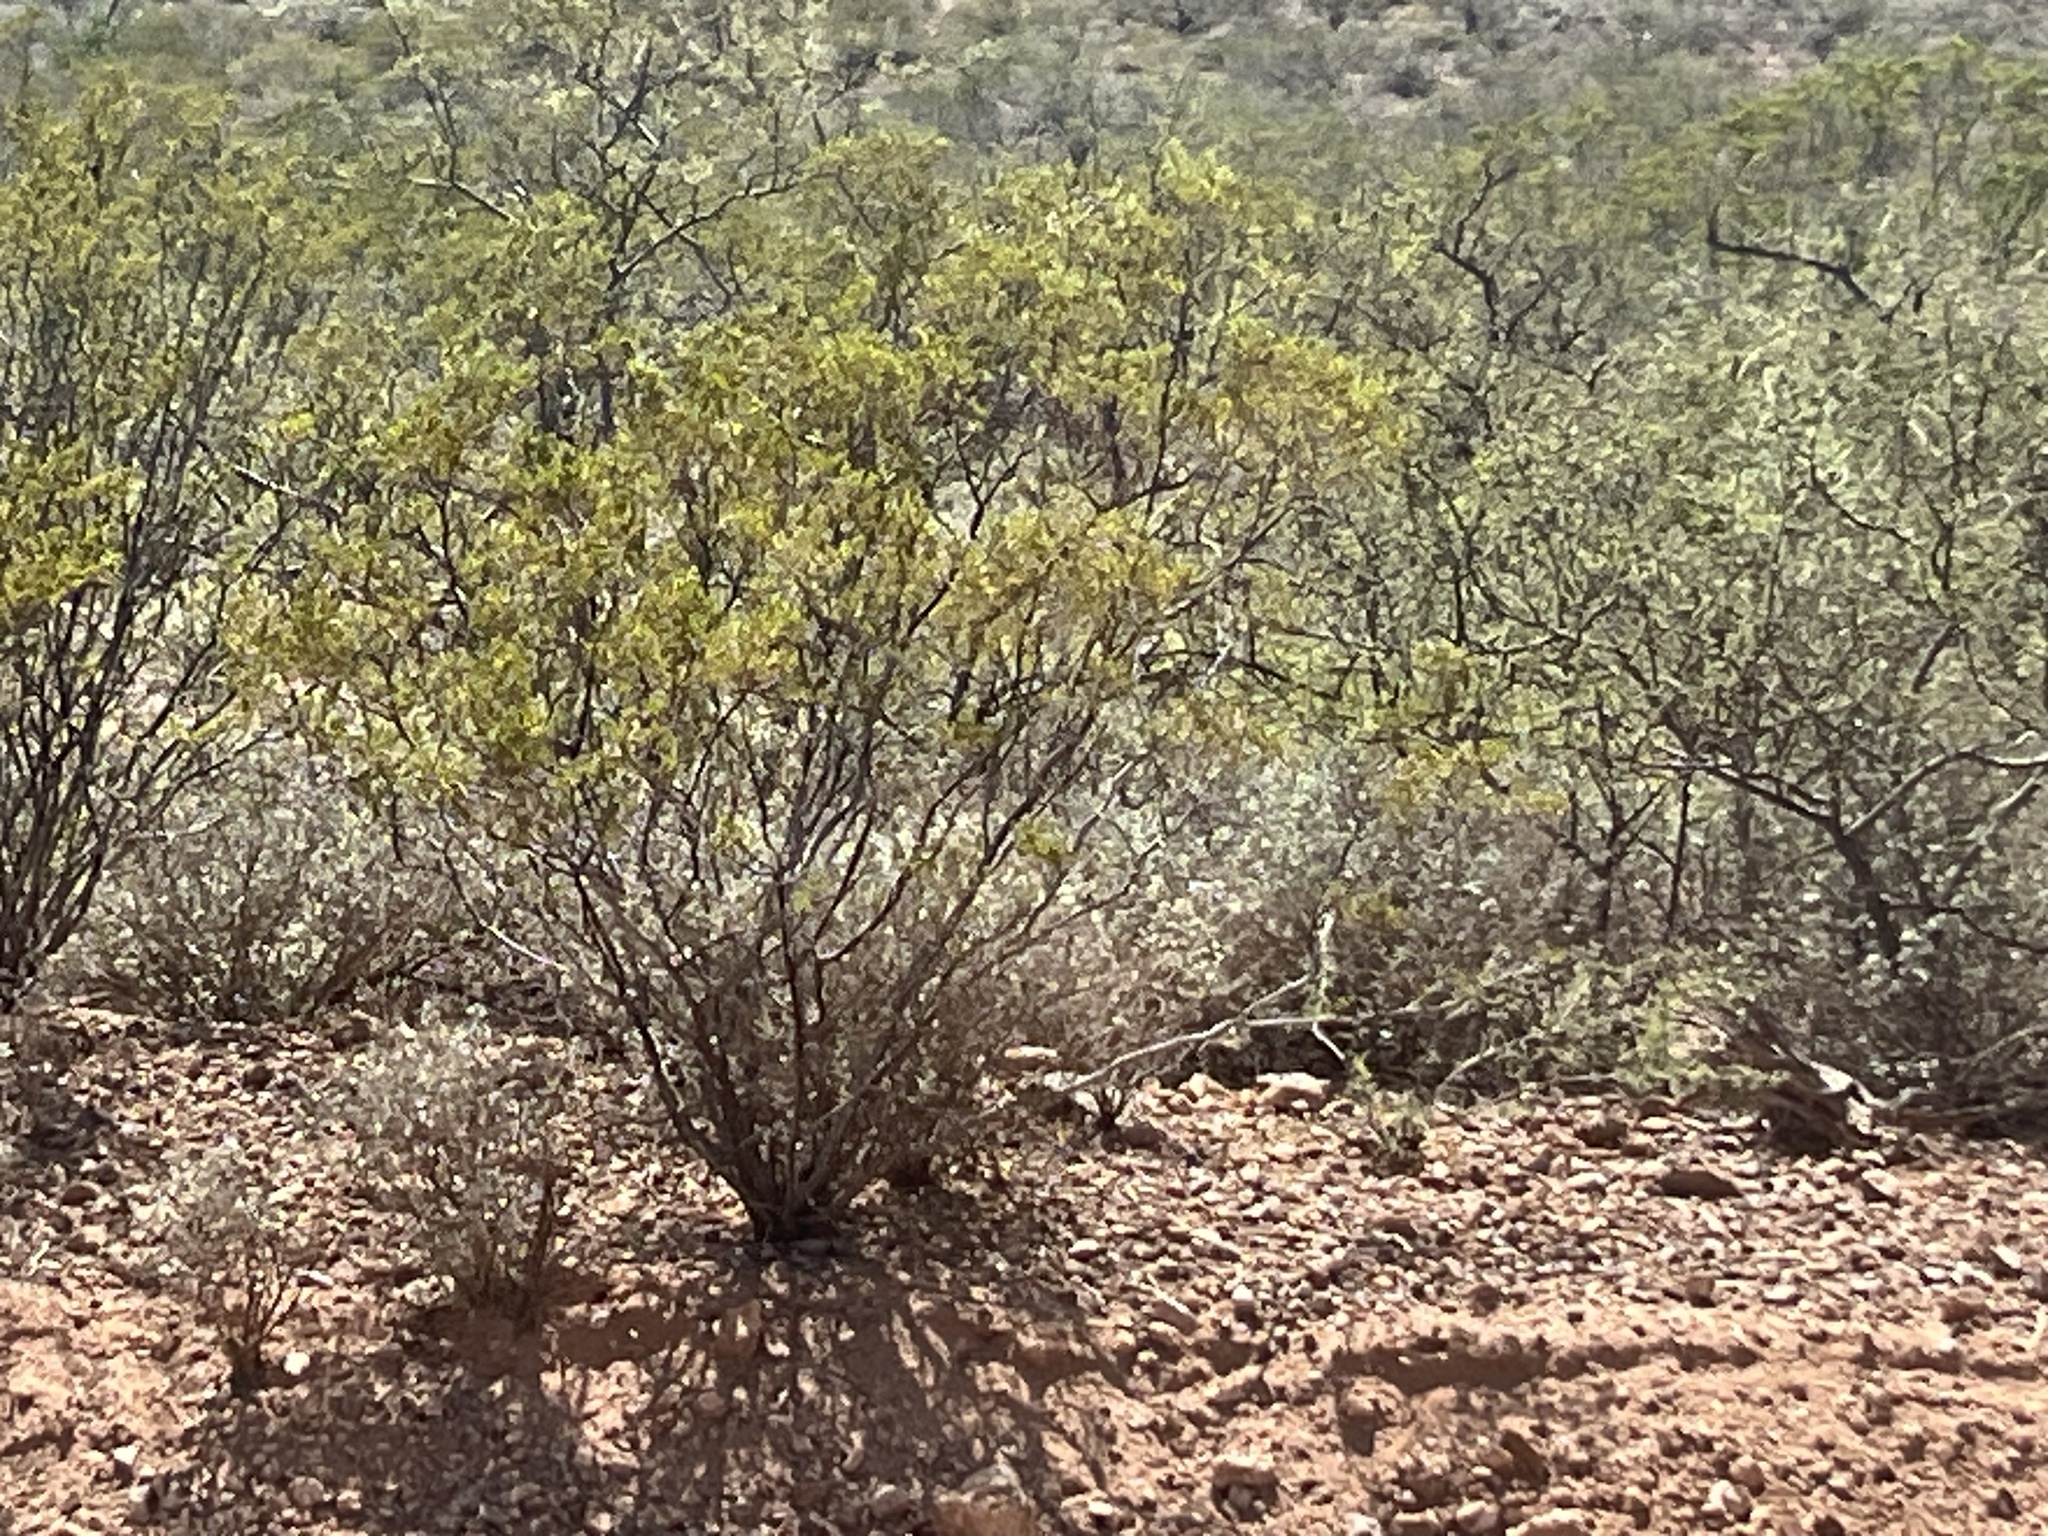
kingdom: Plantae
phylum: Tracheophyta
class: Magnoliopsida
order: Zygophyllales
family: Zygophyllaceae
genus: Larrea
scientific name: Larrea tridentata
